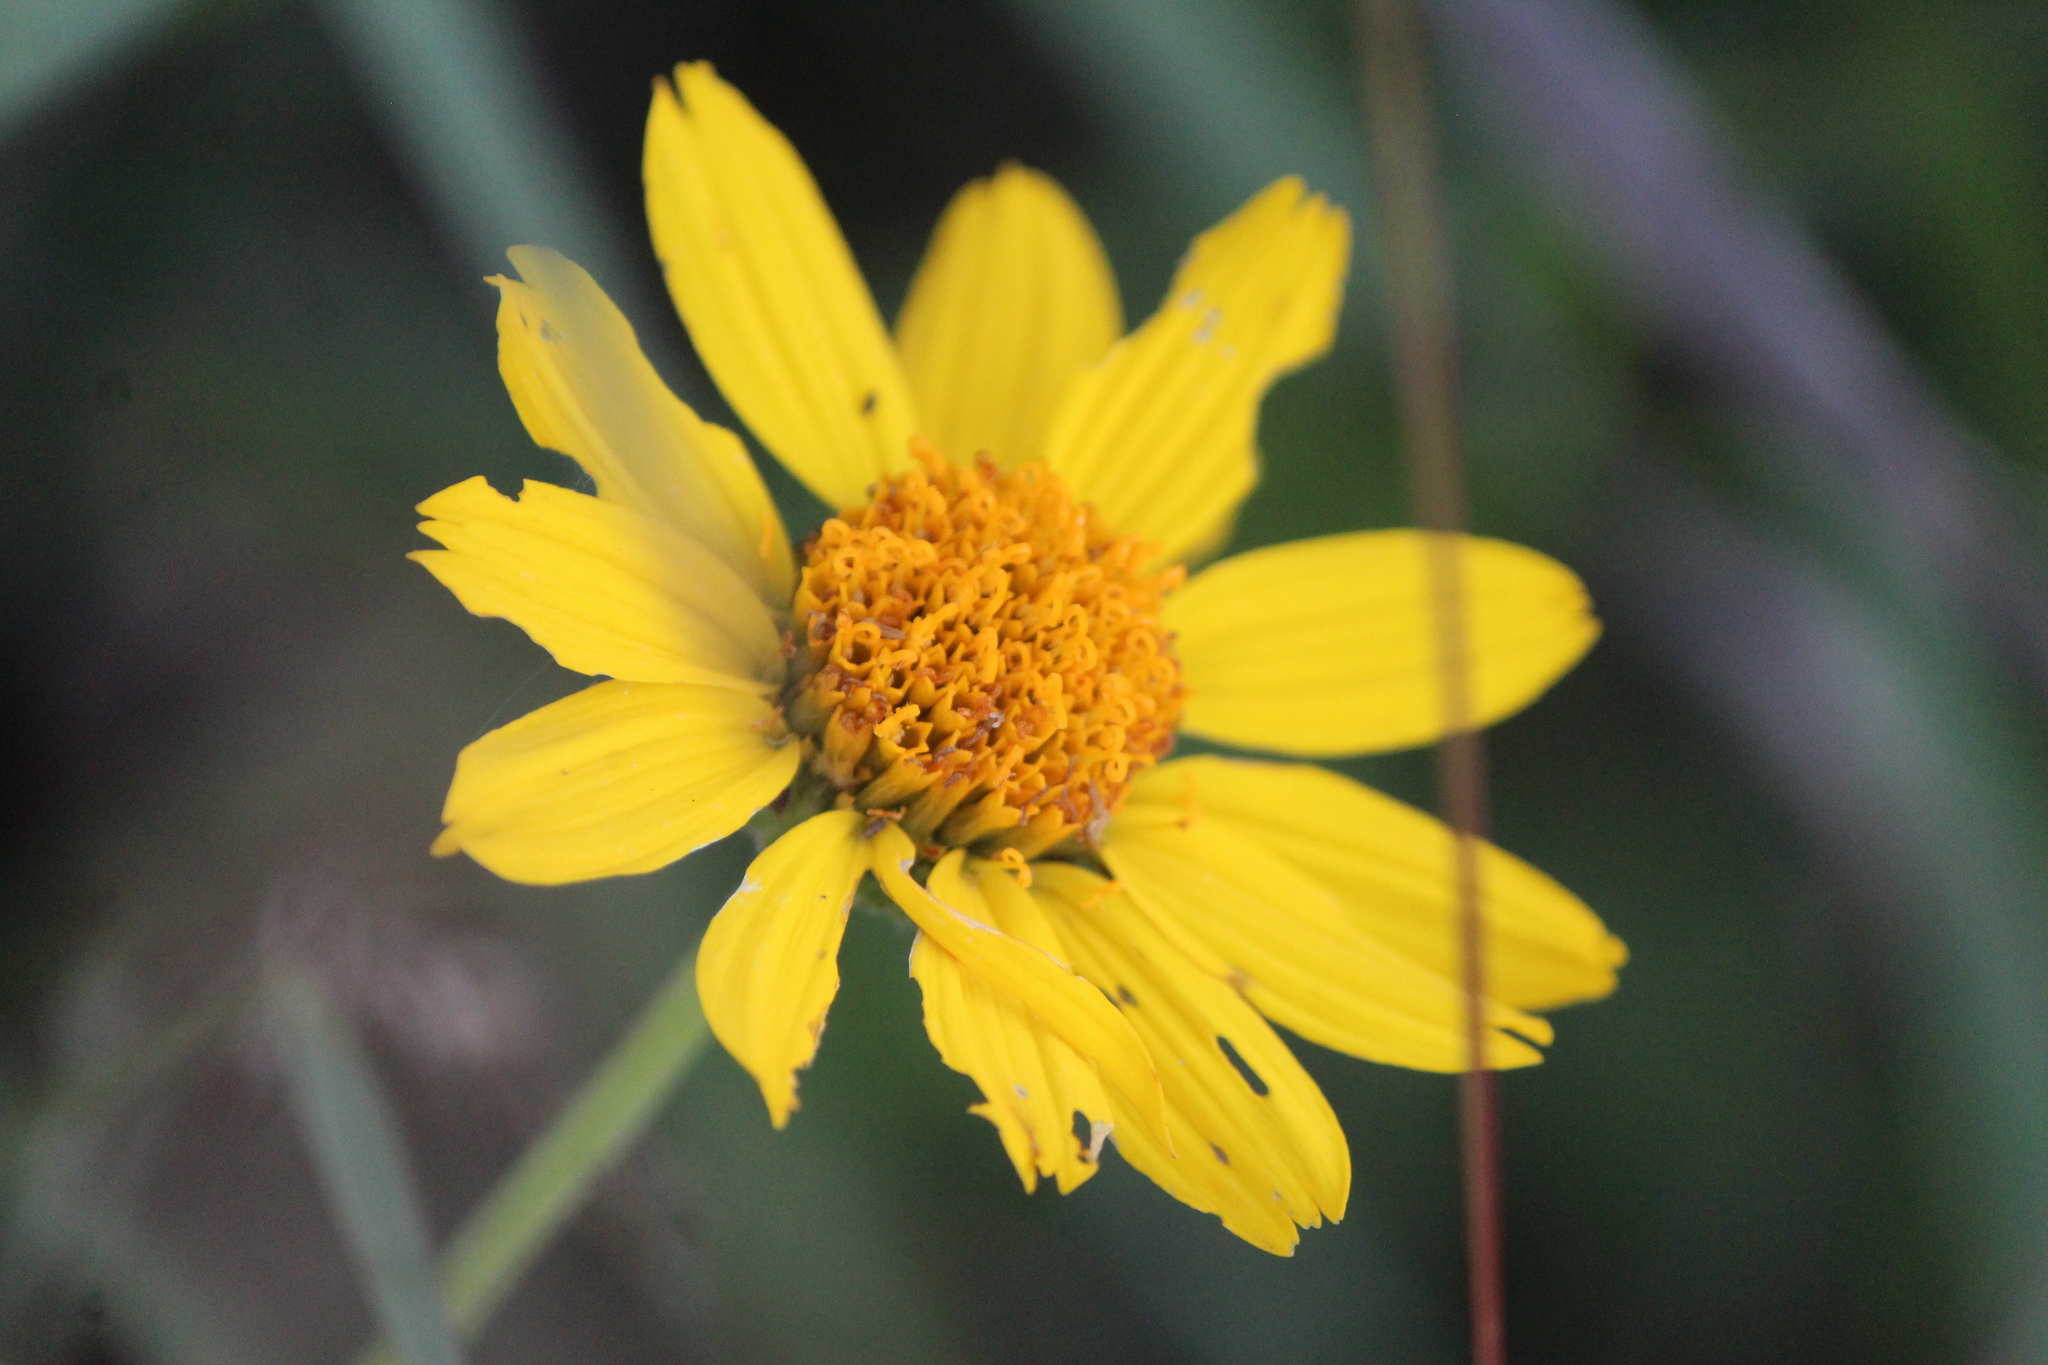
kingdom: Plantae
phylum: Tracheophyta
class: Magnoliopsida
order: Asterales
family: Asteraceae
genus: Verbesina
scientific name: Verbesina pedunculosa
